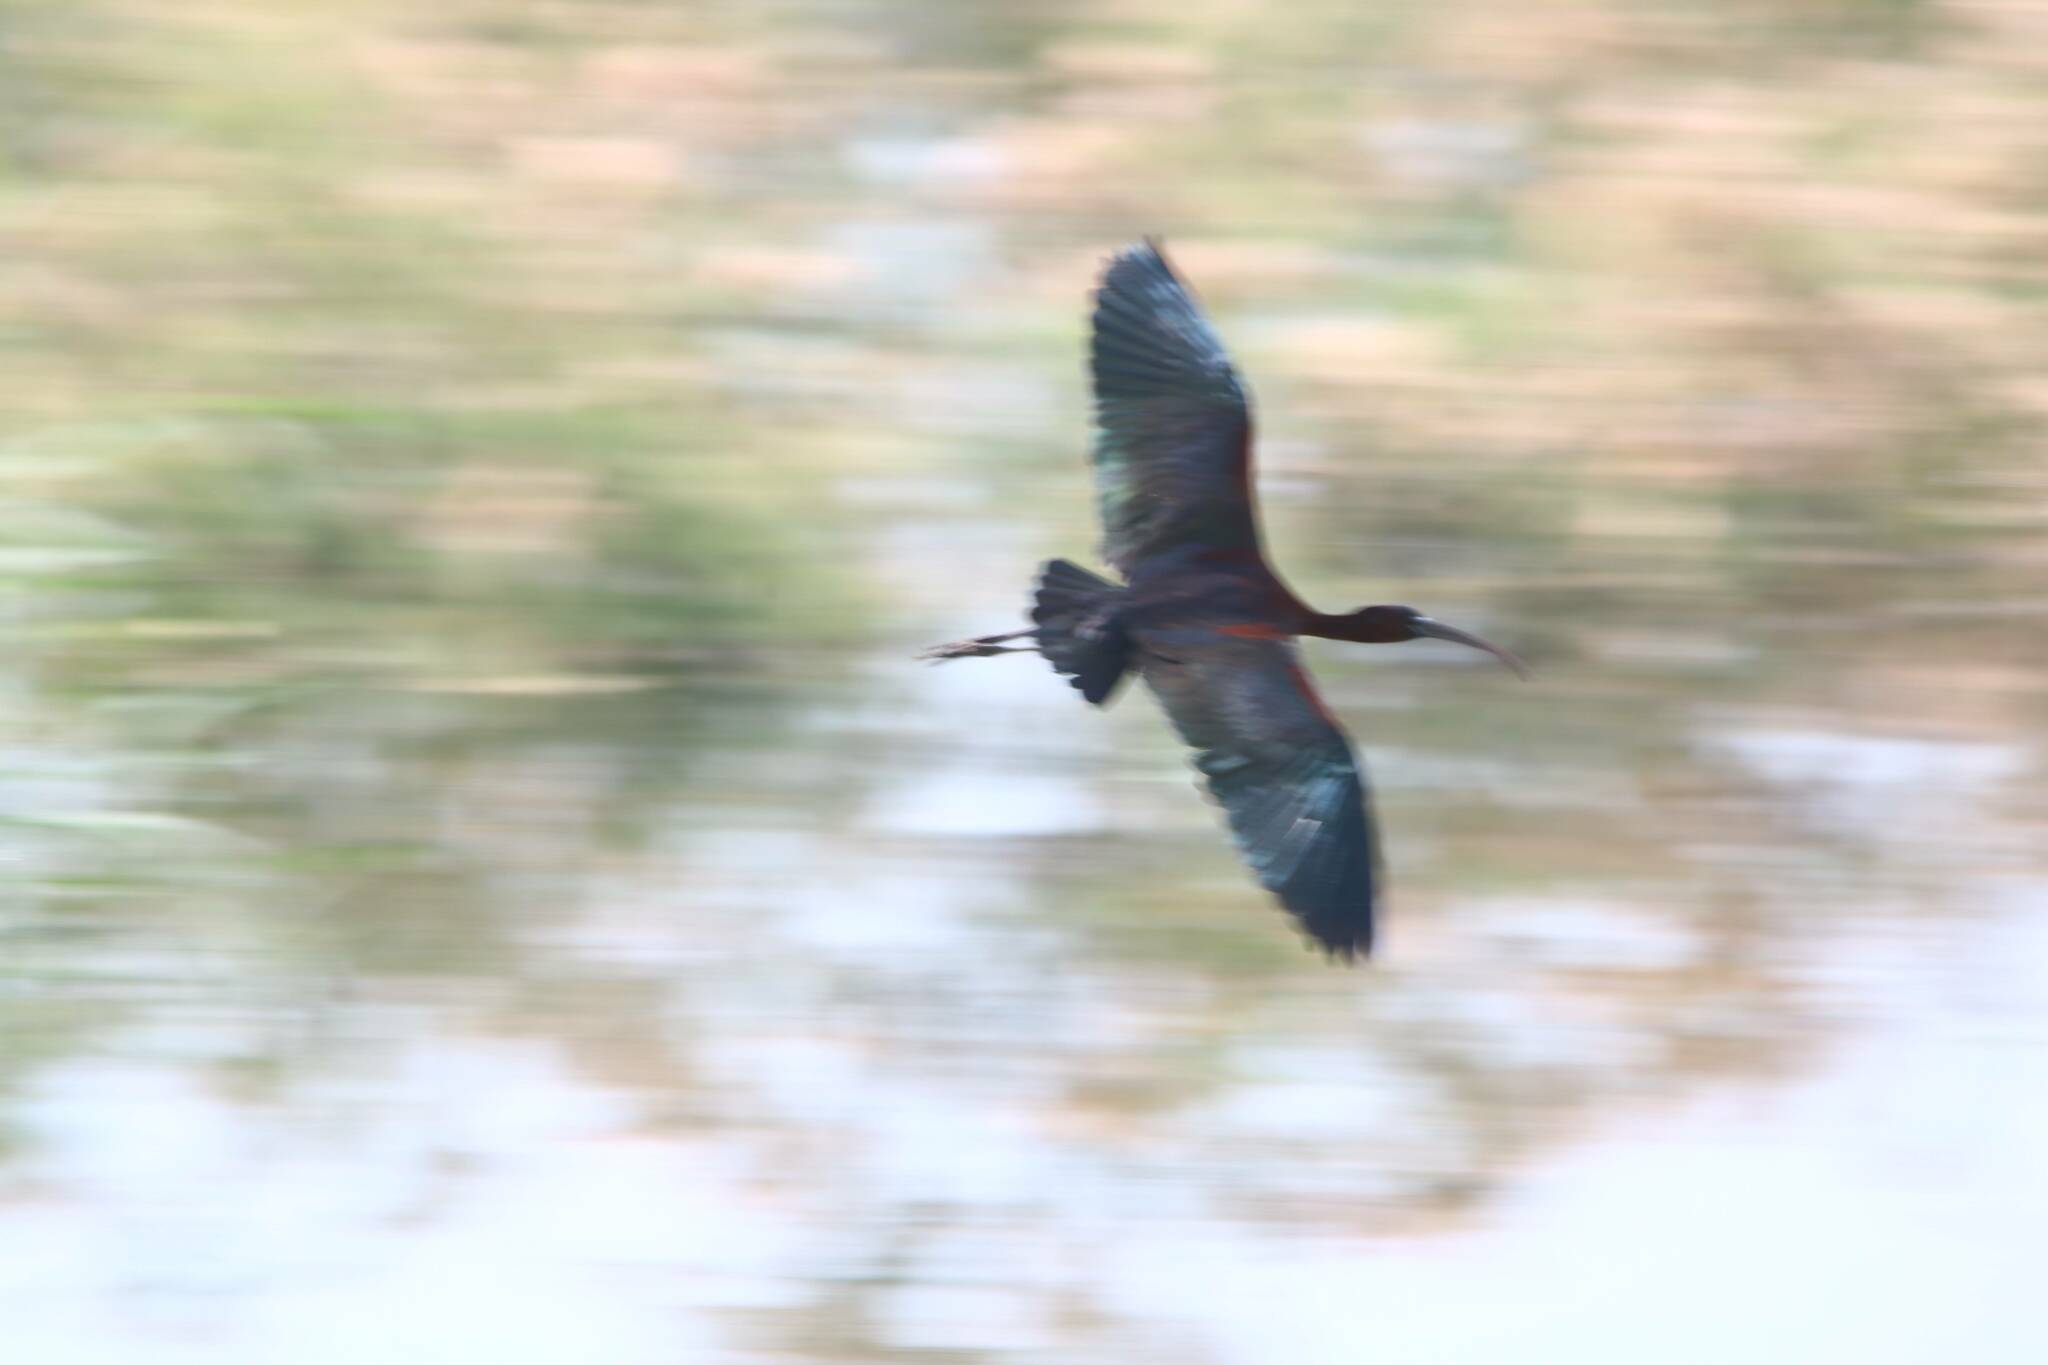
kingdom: Animalia
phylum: Chordata
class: Aves
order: Pelecaniformes
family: Threskiornithidae
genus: Plegadis
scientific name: Plegadis falcinellus
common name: Glossy ibis
